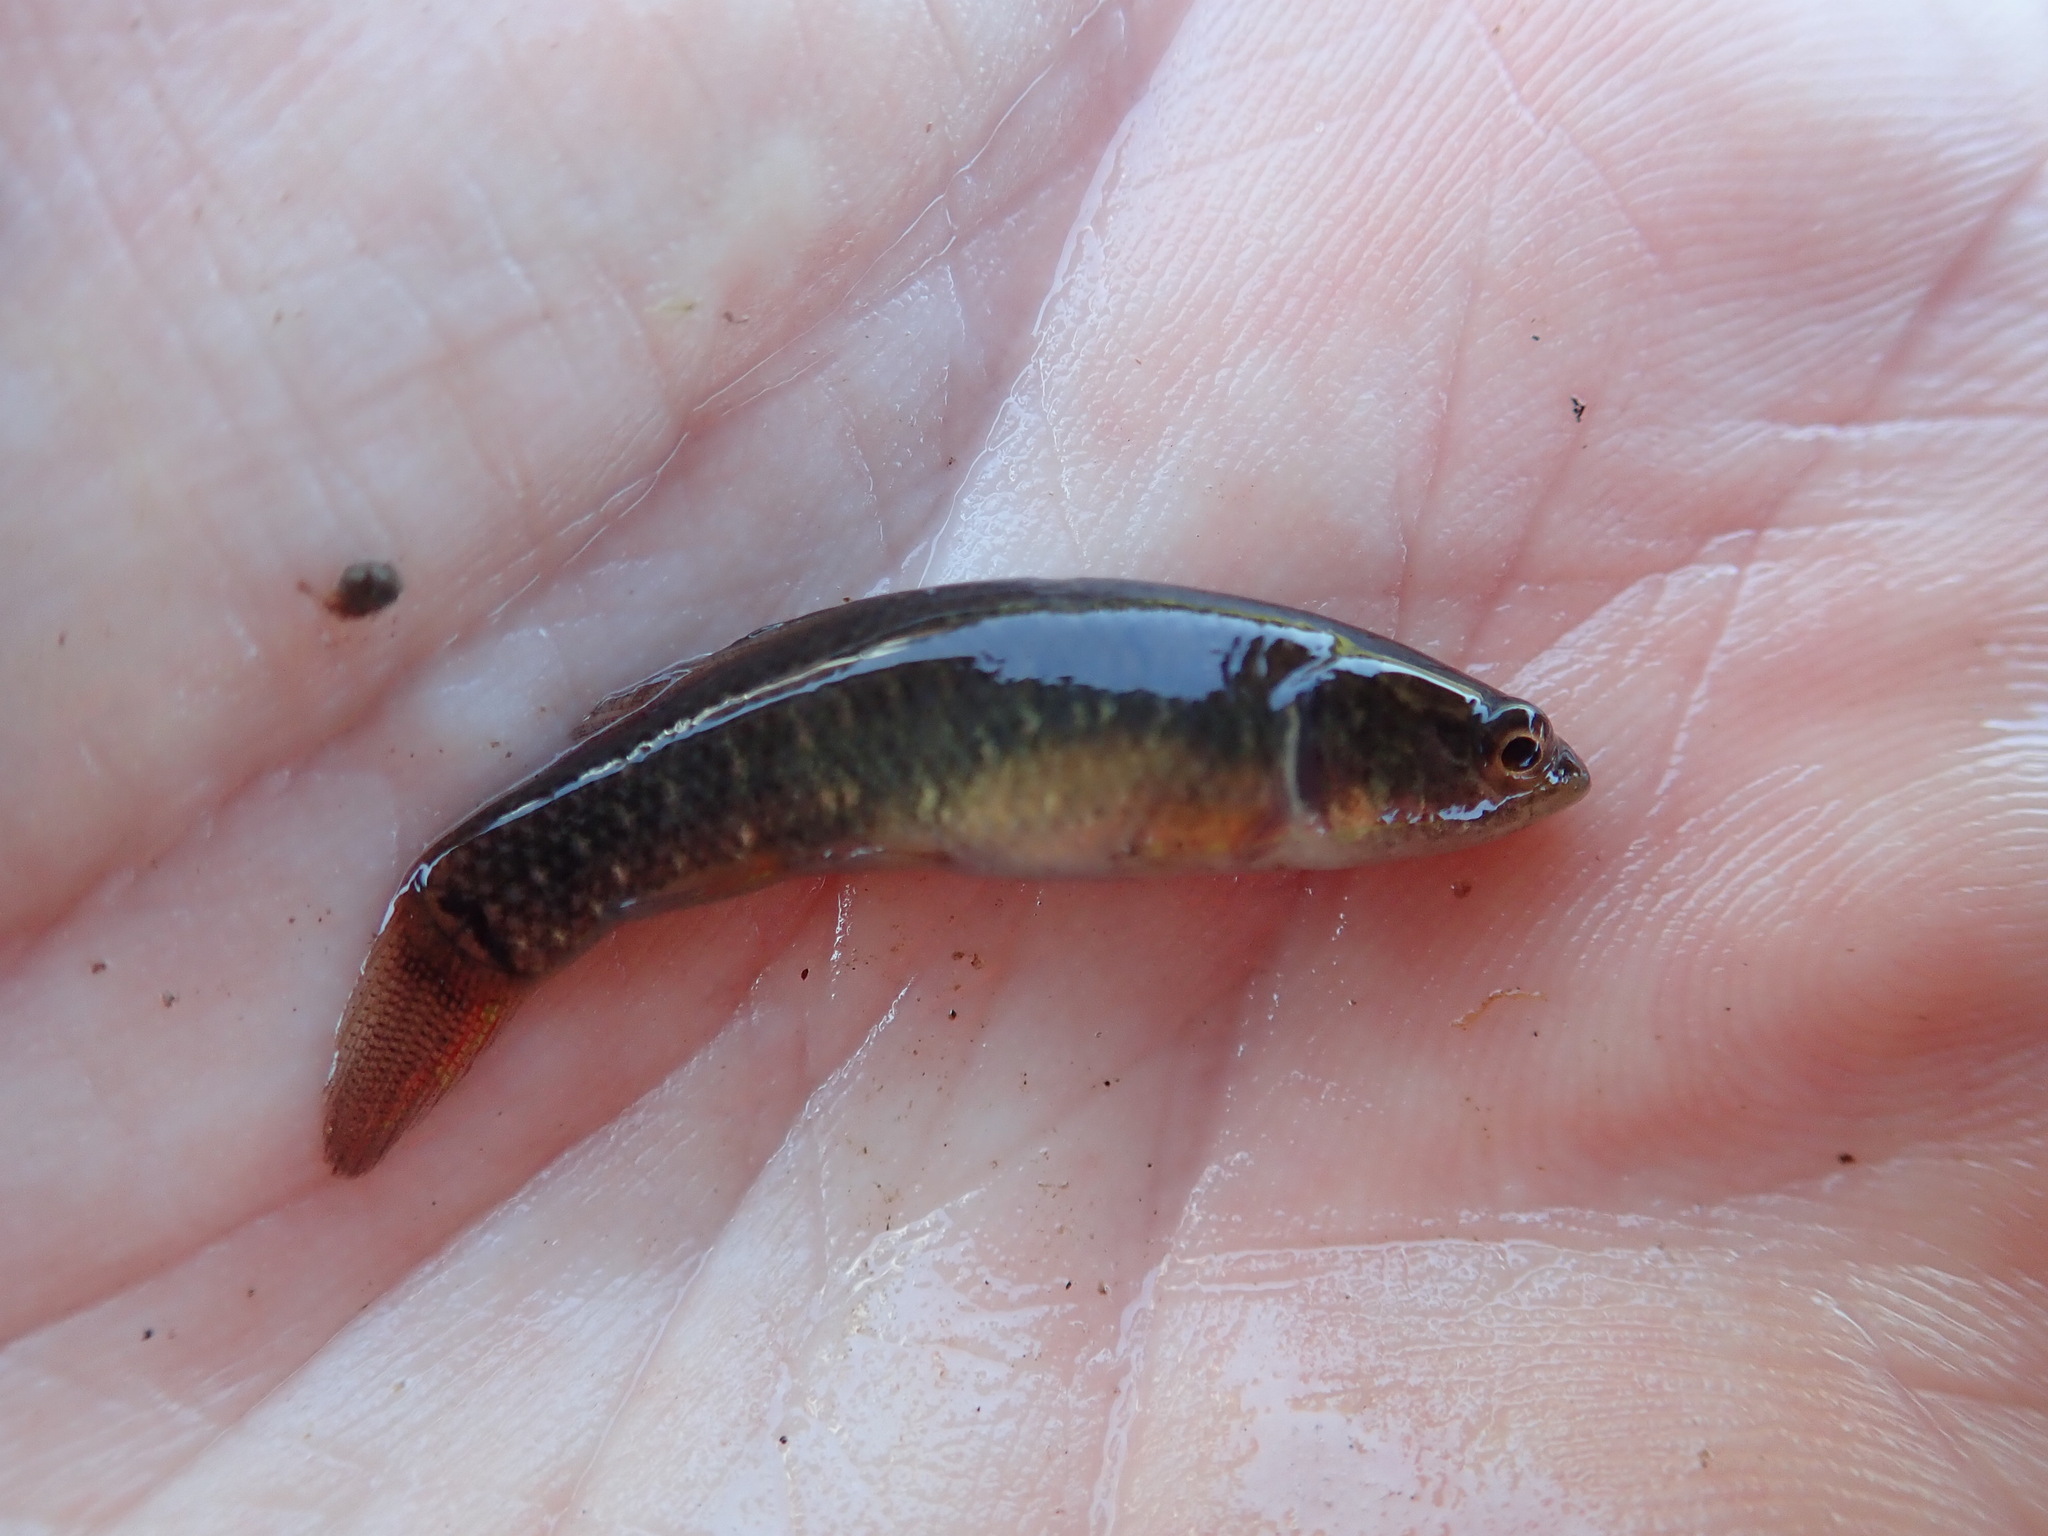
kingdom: Animalia
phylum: Chordata
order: Esociformes
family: Umbridae
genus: Umbra
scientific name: Umbra limi
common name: Central mudminnow
